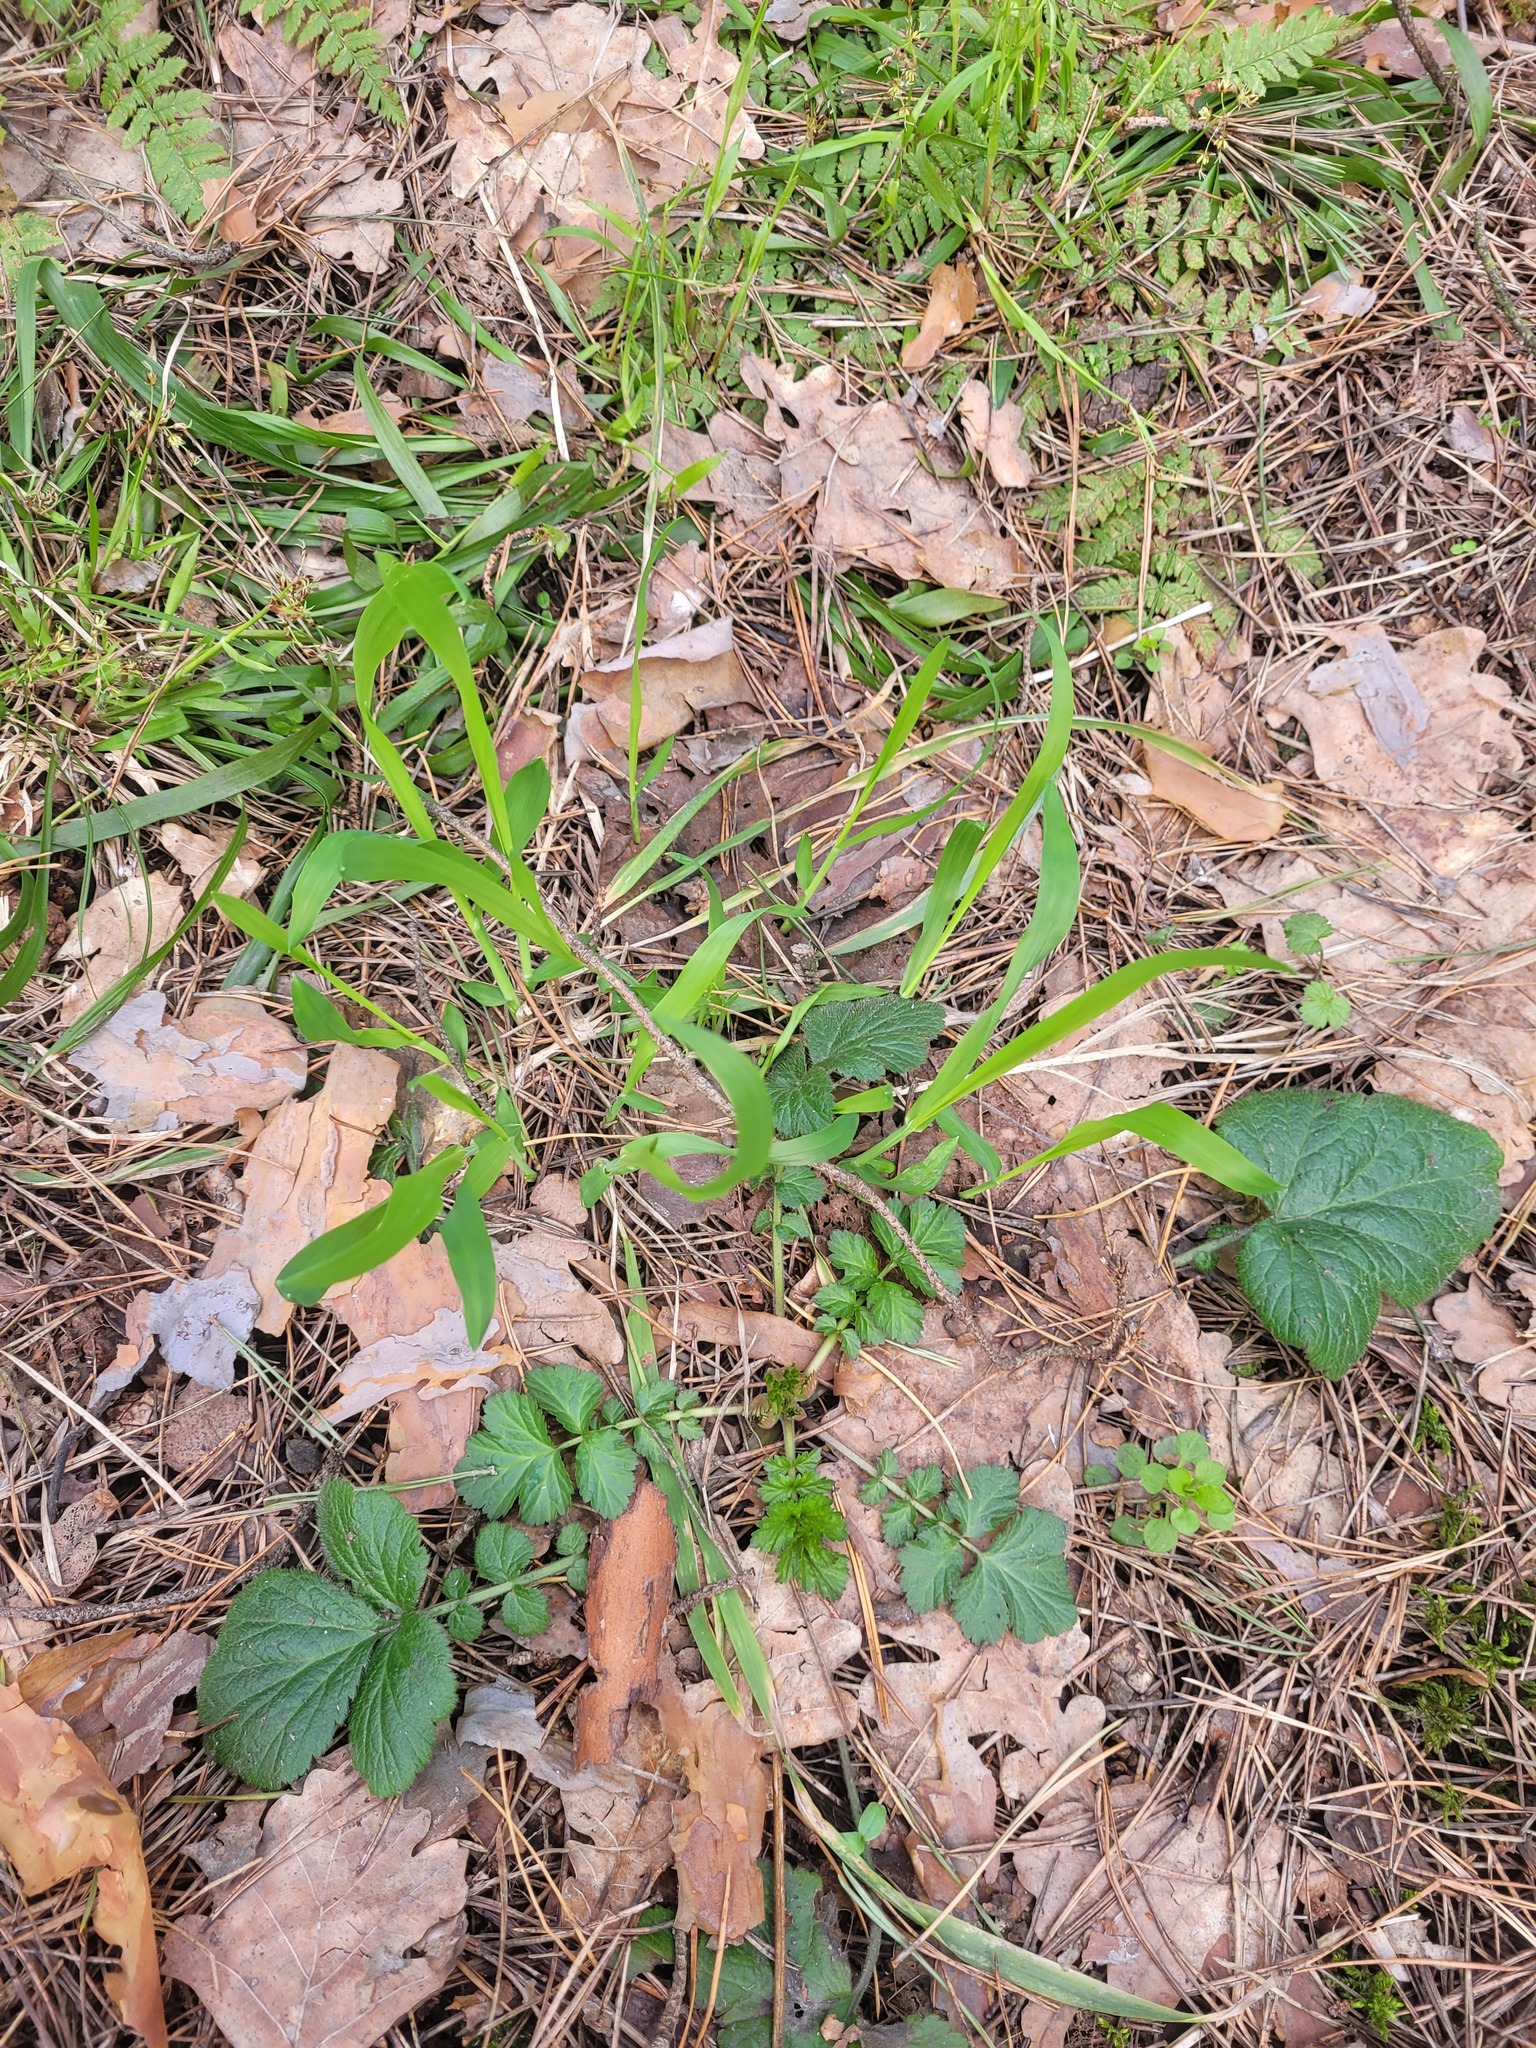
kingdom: Plantae
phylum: Tracheophyta
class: Liliopsida
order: Poales
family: Poaceae
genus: Milium
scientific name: Milium effusum
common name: Wood millet
